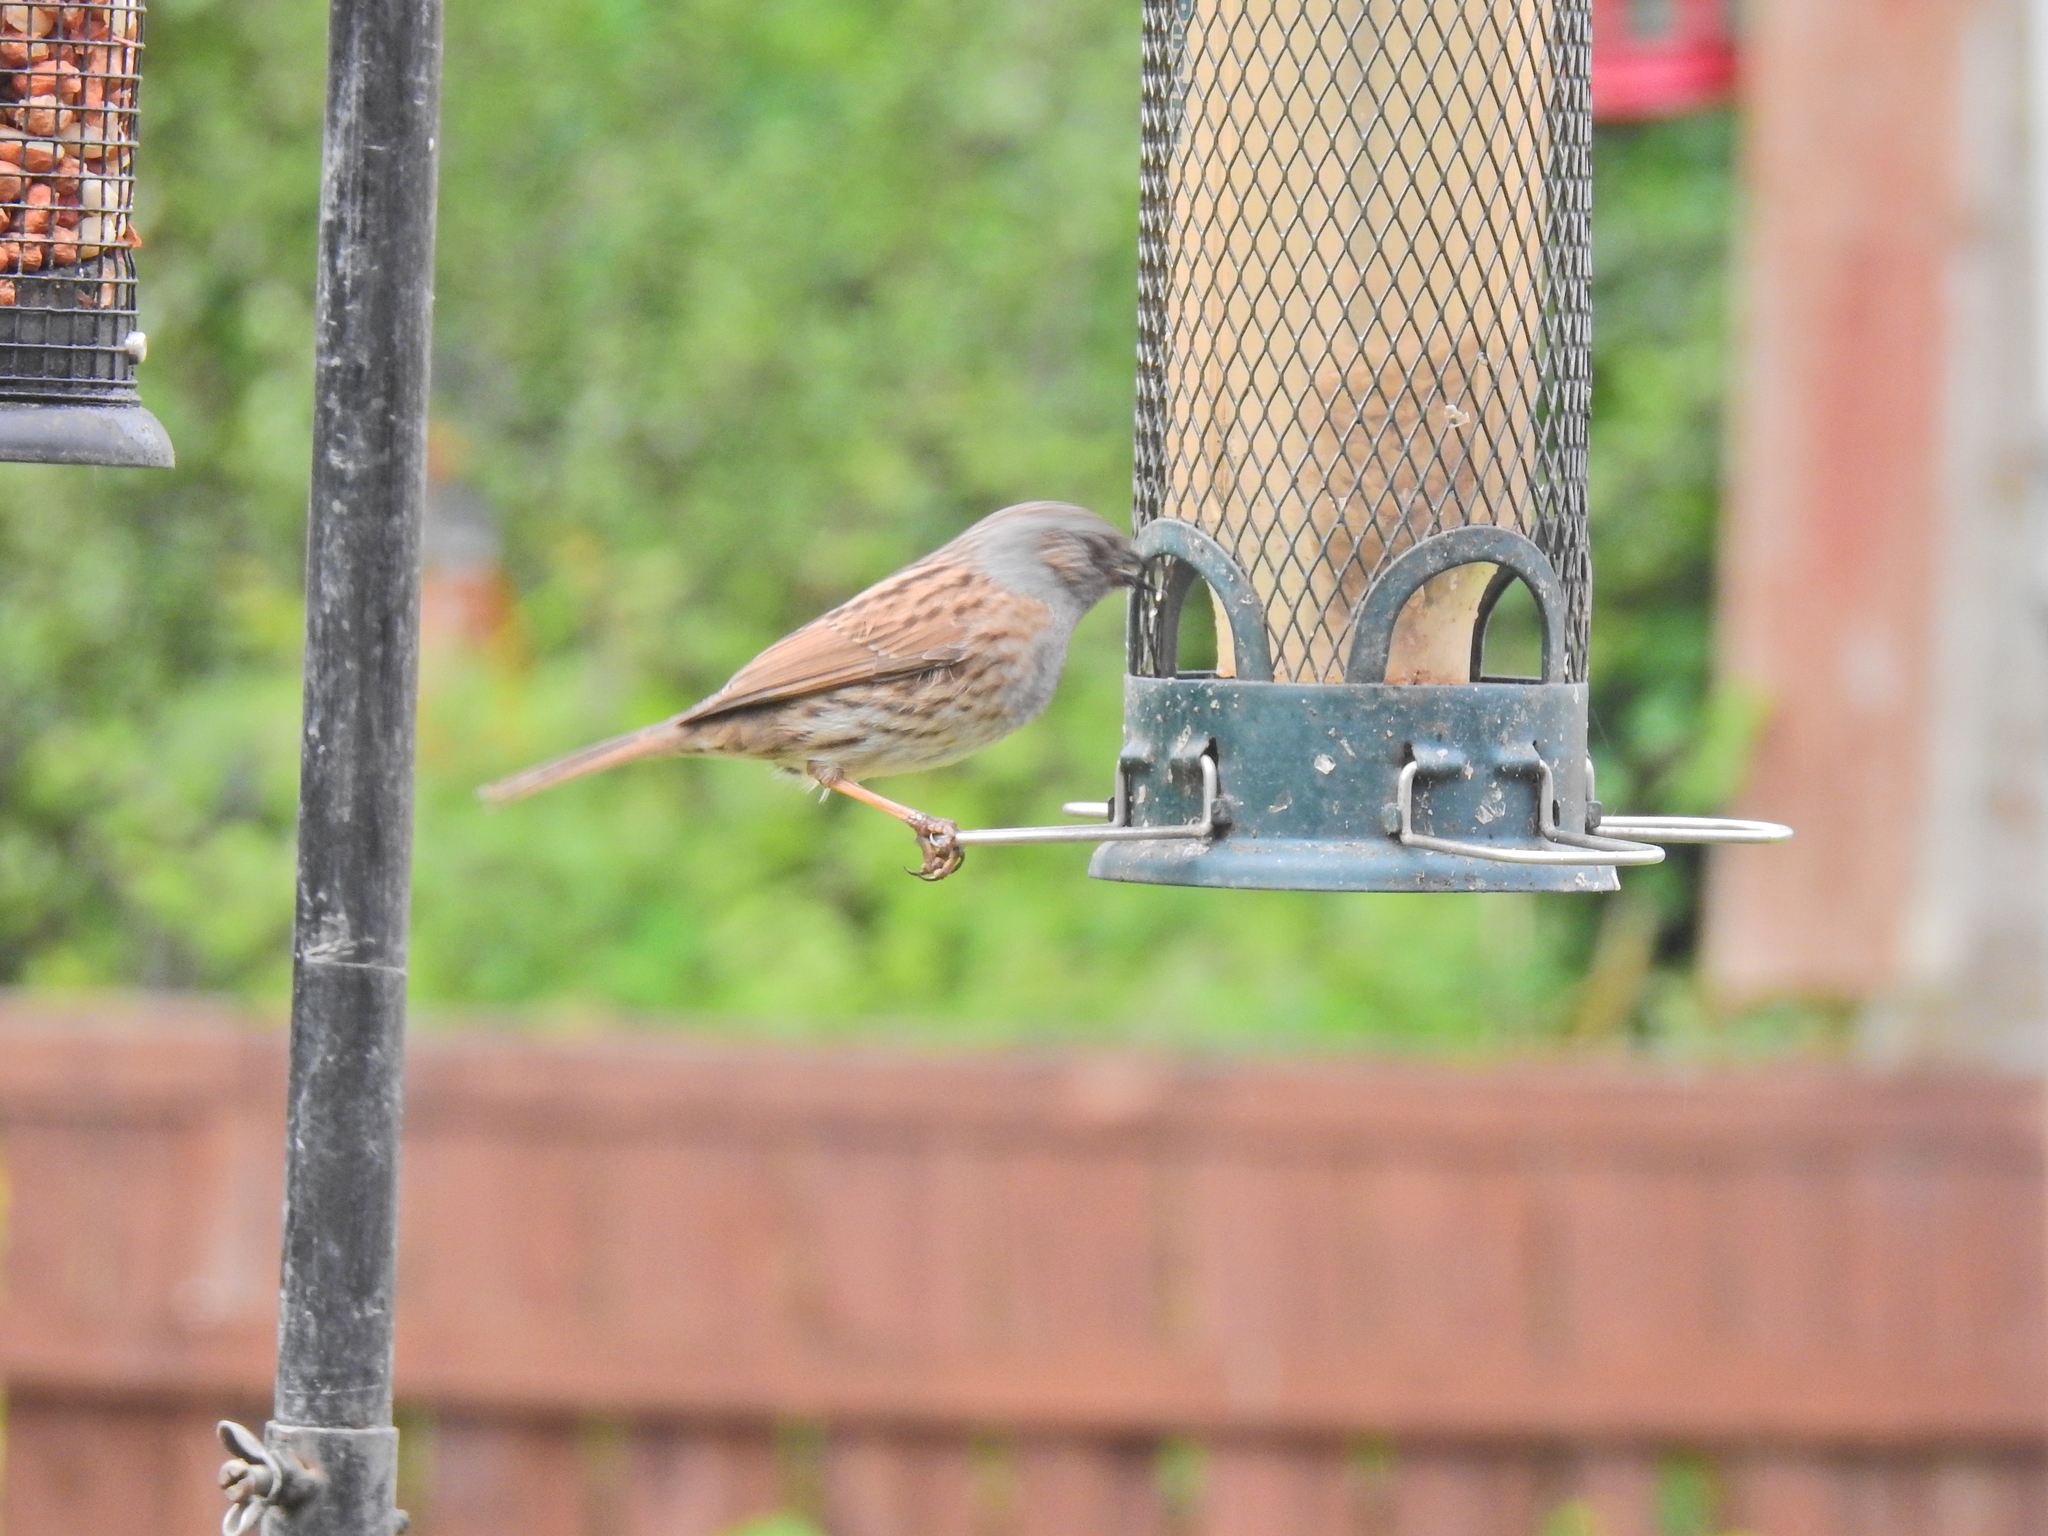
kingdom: Animalia
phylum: Chordata
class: Aves
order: Passeriformes
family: Prunellidae
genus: Prunella
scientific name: Prunella modularis
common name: Dunnock
